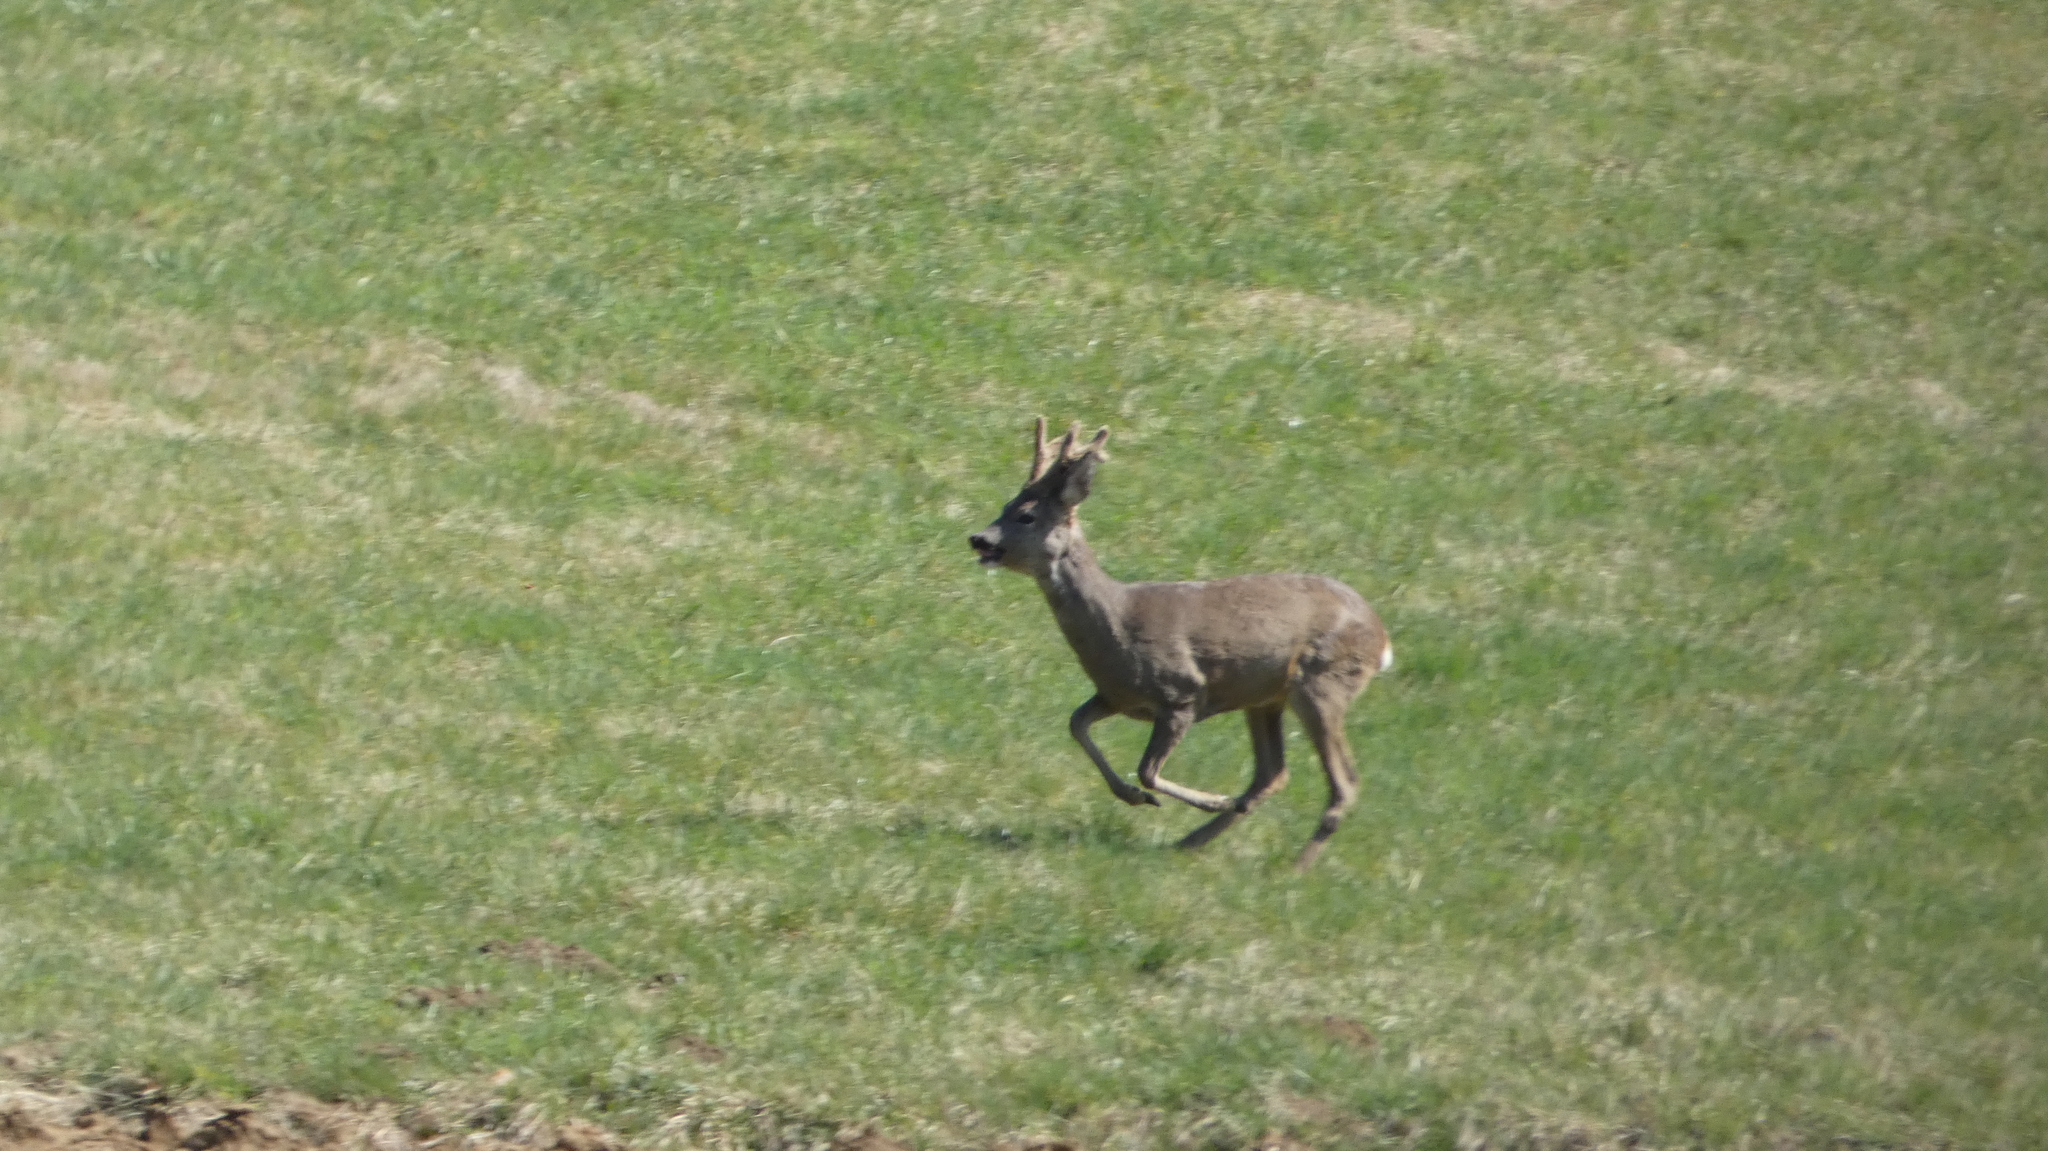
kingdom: Animalia
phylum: Chordata
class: Mammalia
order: Artiodactyla
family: Cervidae
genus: Capreolus
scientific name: Capreolus capreolus
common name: Western roe deer
